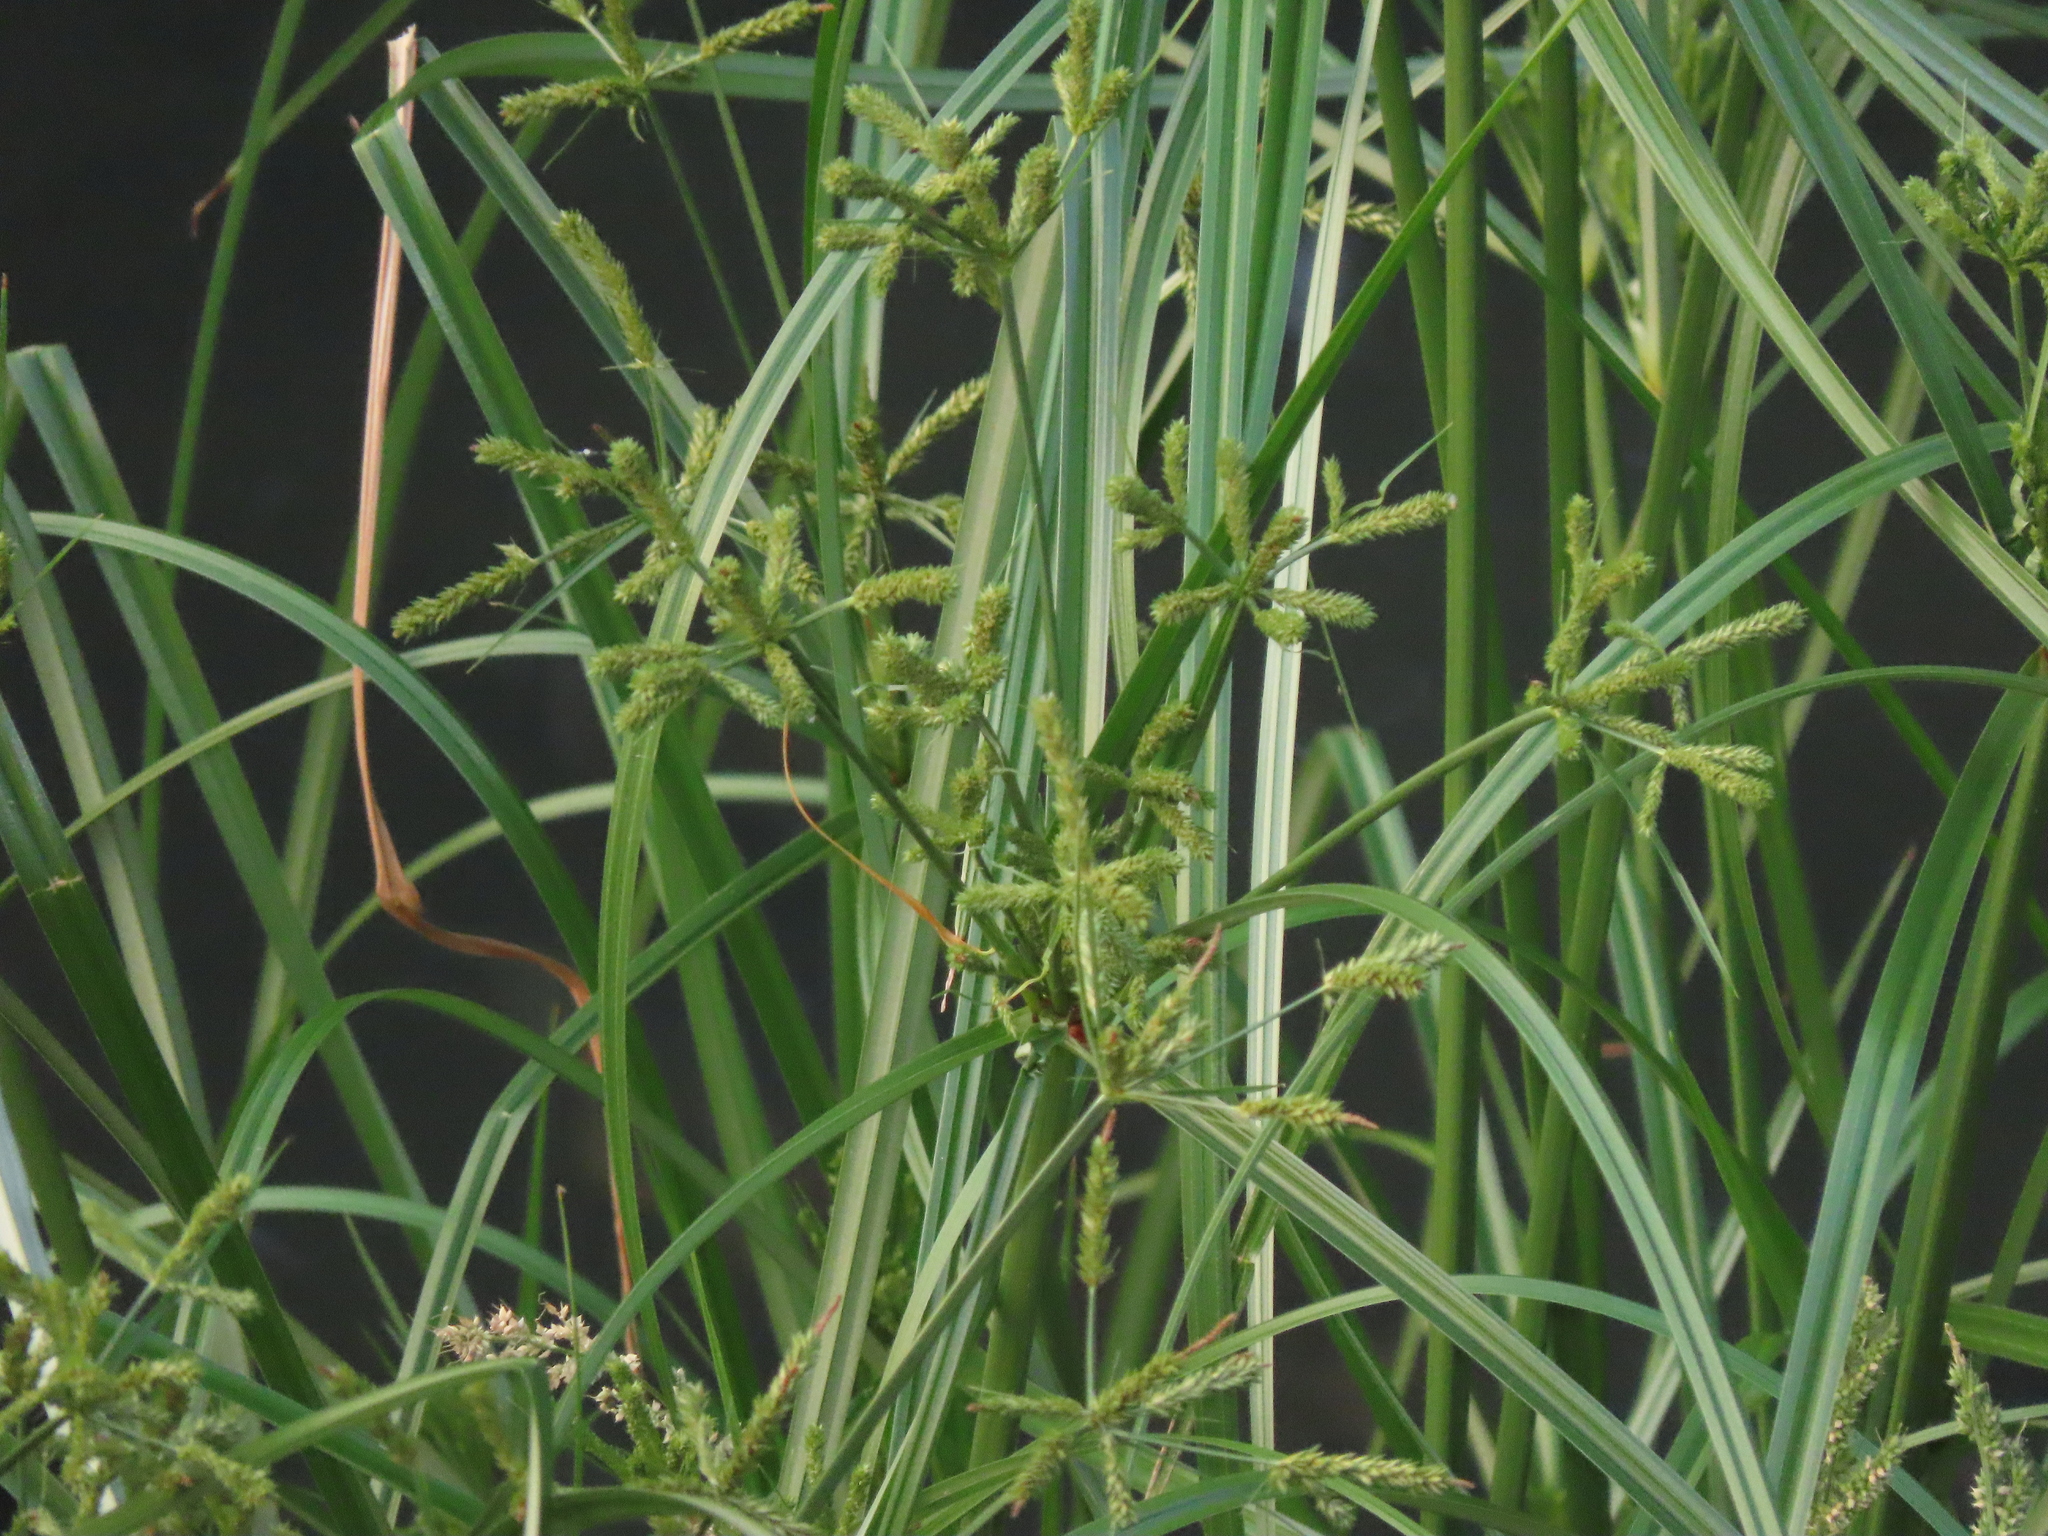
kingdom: Plantae
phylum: Tracheophyta
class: Liliopsida
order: Poales
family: Cyperaceae
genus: Cyperus
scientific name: Cyperus imbricatus
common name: Shingle flatsedge
